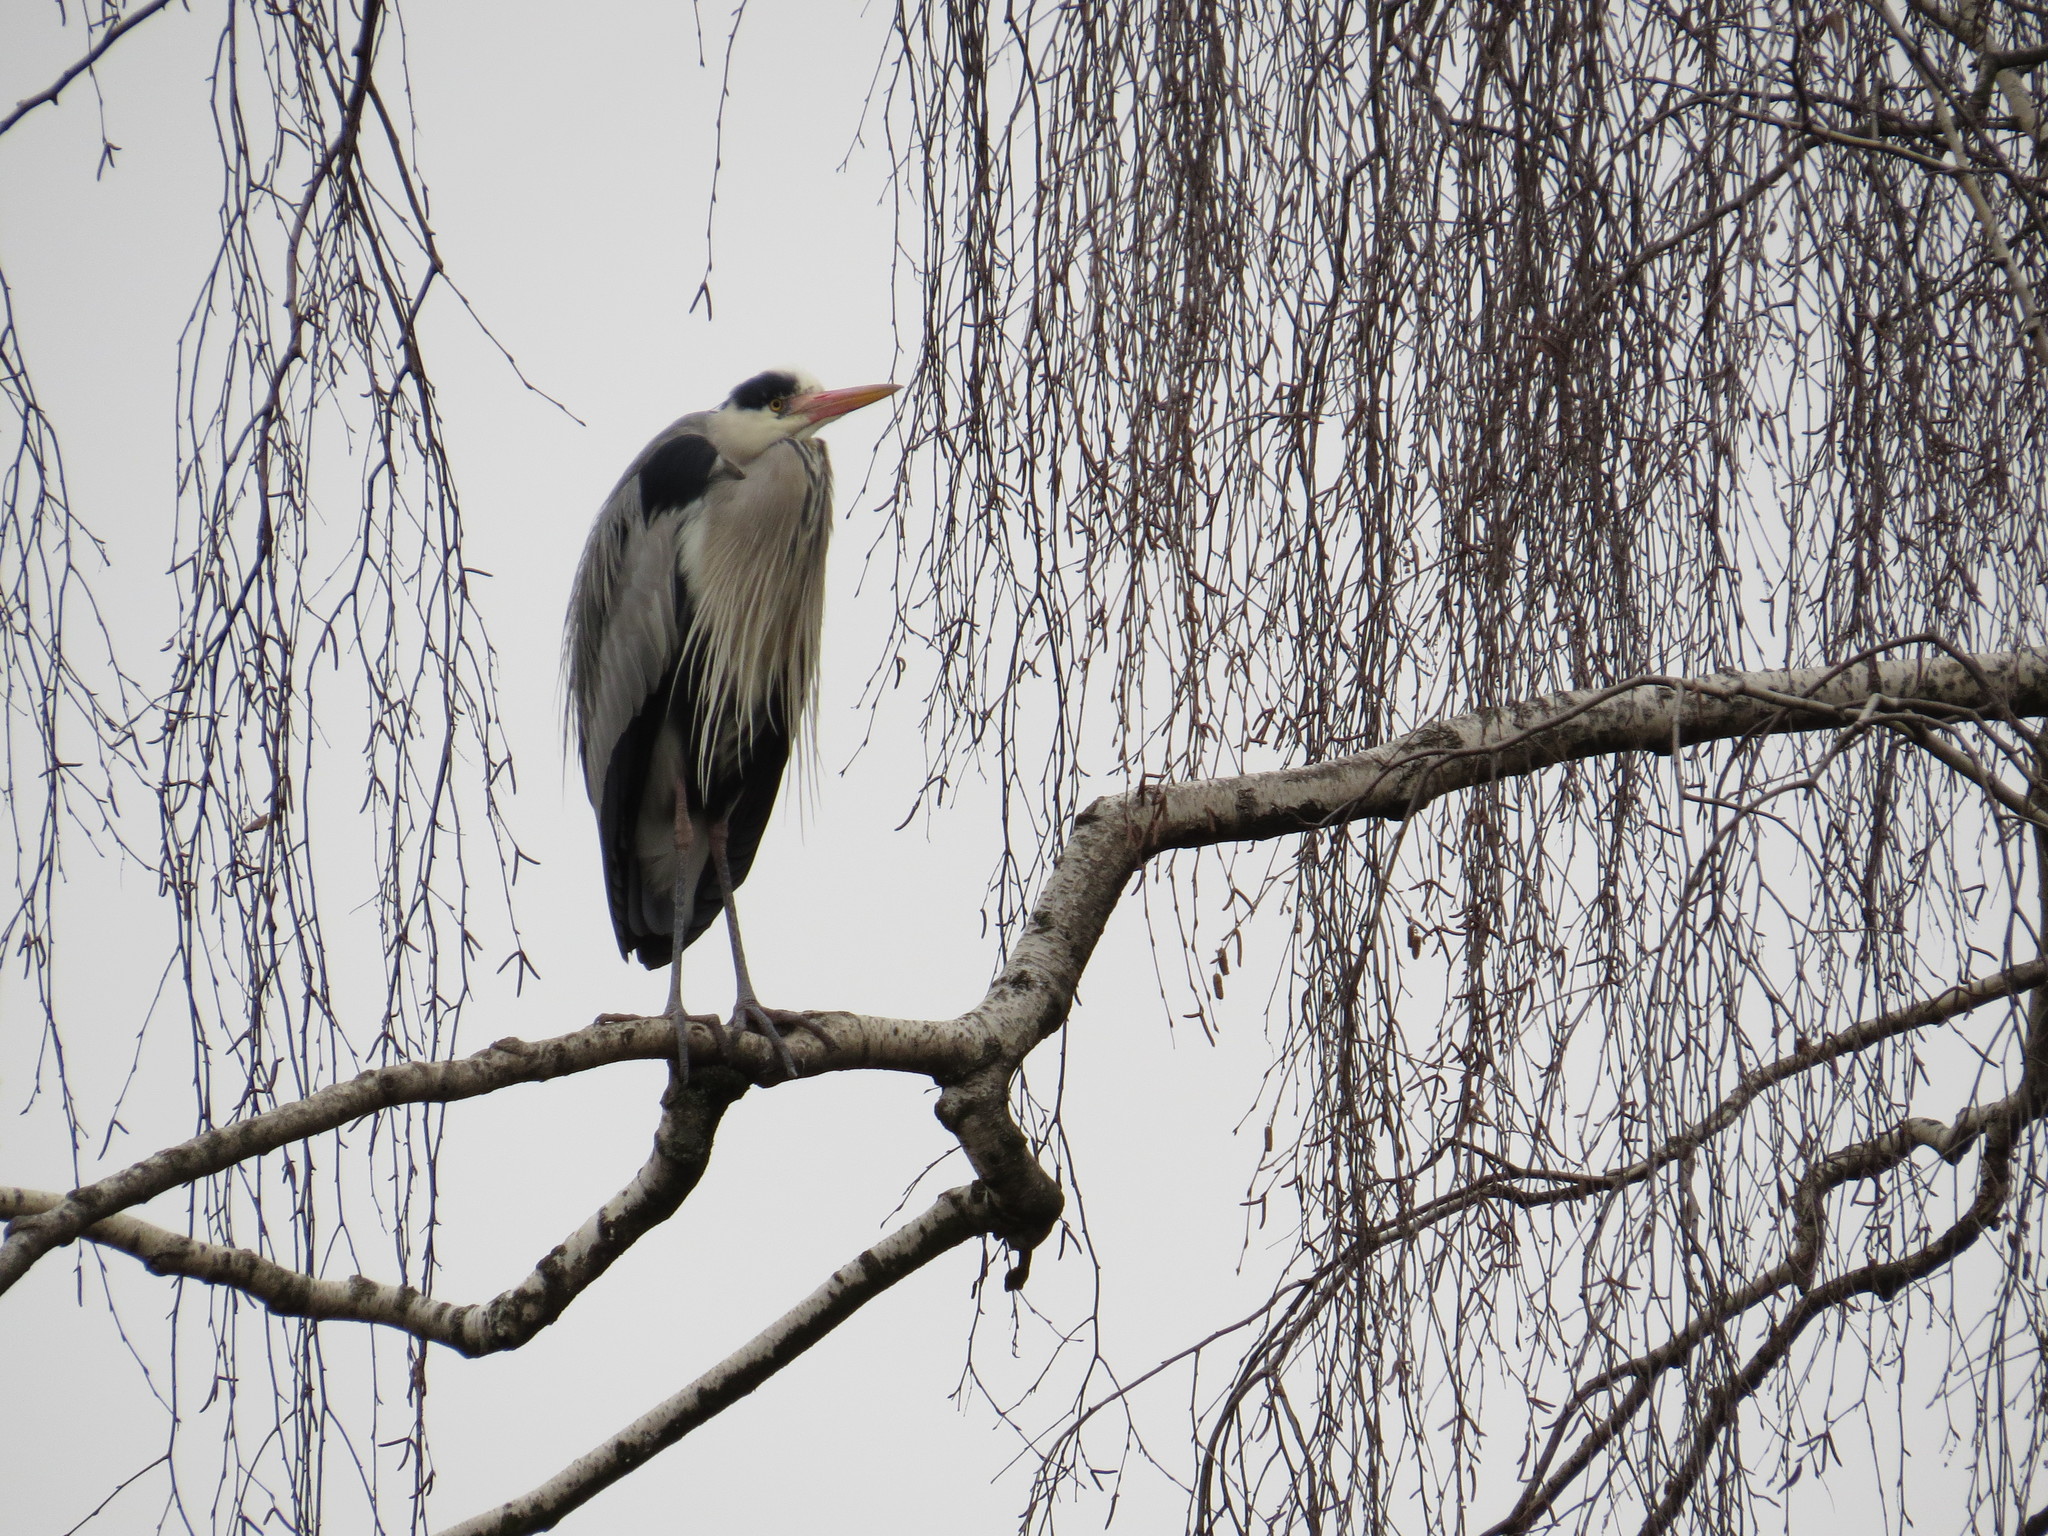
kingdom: Animalia
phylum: Chordata
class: Aves
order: Pelecaniformes
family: Ardeidae
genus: Ardea
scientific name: Ardea cinerea
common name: Grey heron
